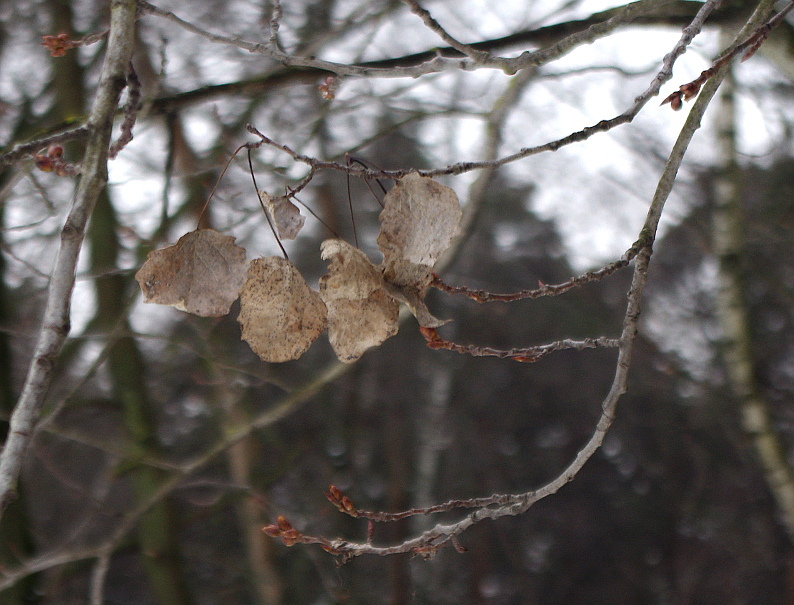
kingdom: Plantae
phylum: Tracheophyta
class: Magnoliopsida
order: Malpighiales
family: Salicaceae
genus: Populus
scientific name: Populus tremula
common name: European aspen
